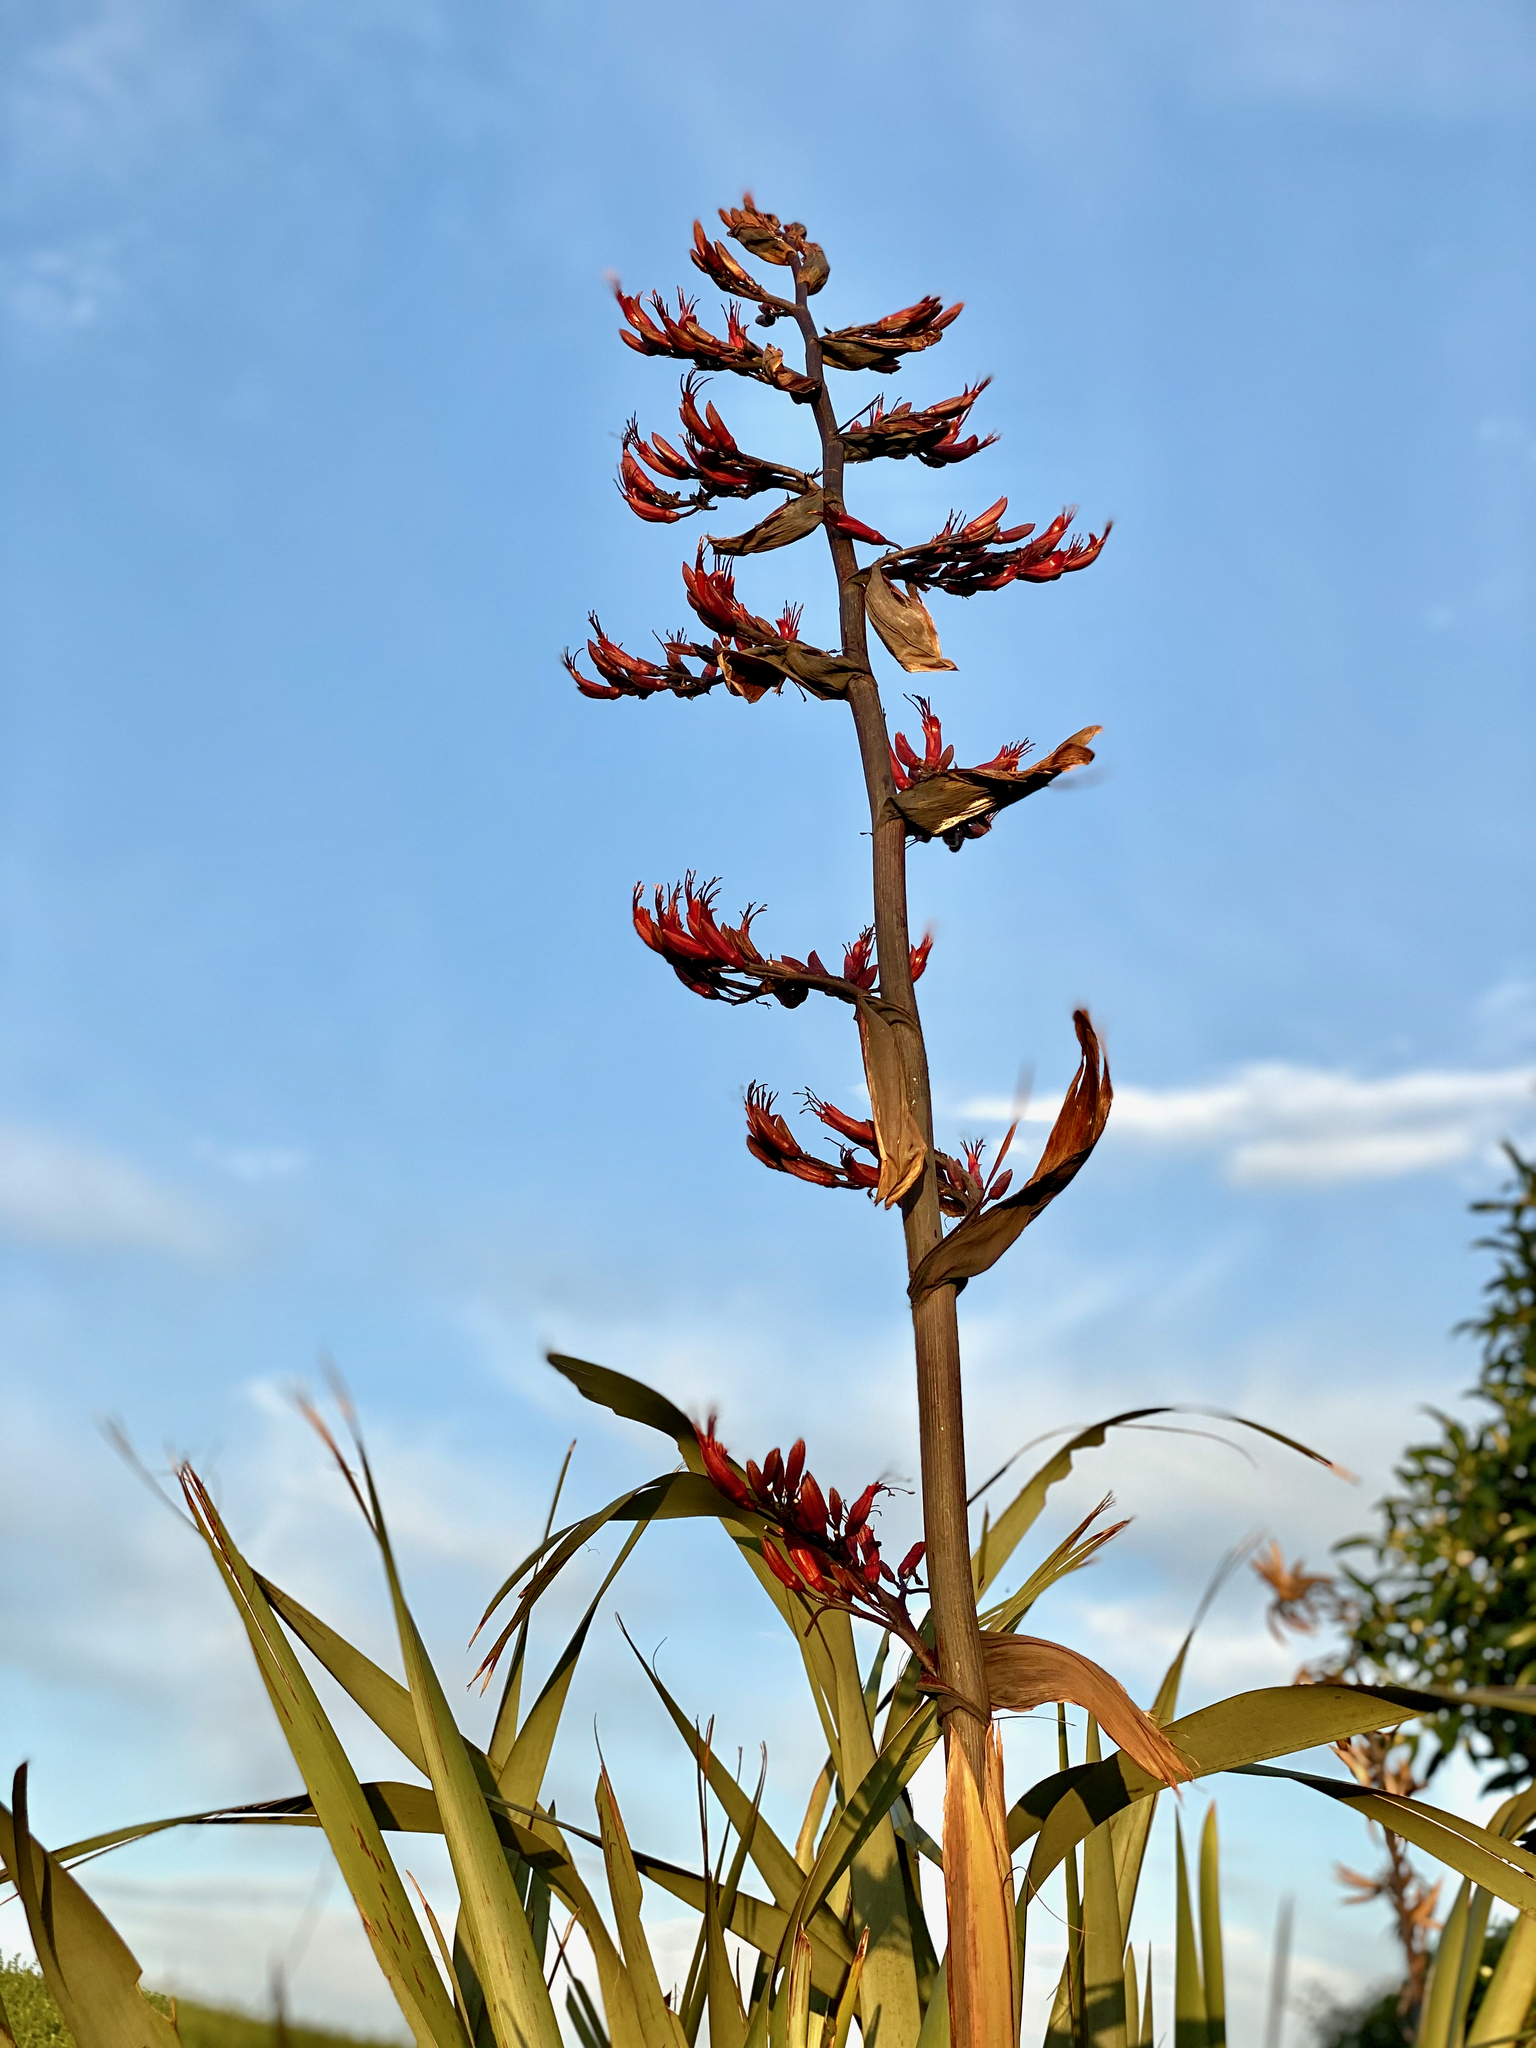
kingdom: Plantae
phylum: Tracheophyta
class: Liliopsida
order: Asparagales
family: Asphodelaceae
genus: Phormium
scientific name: Phormium tenax
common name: New zealand flax
